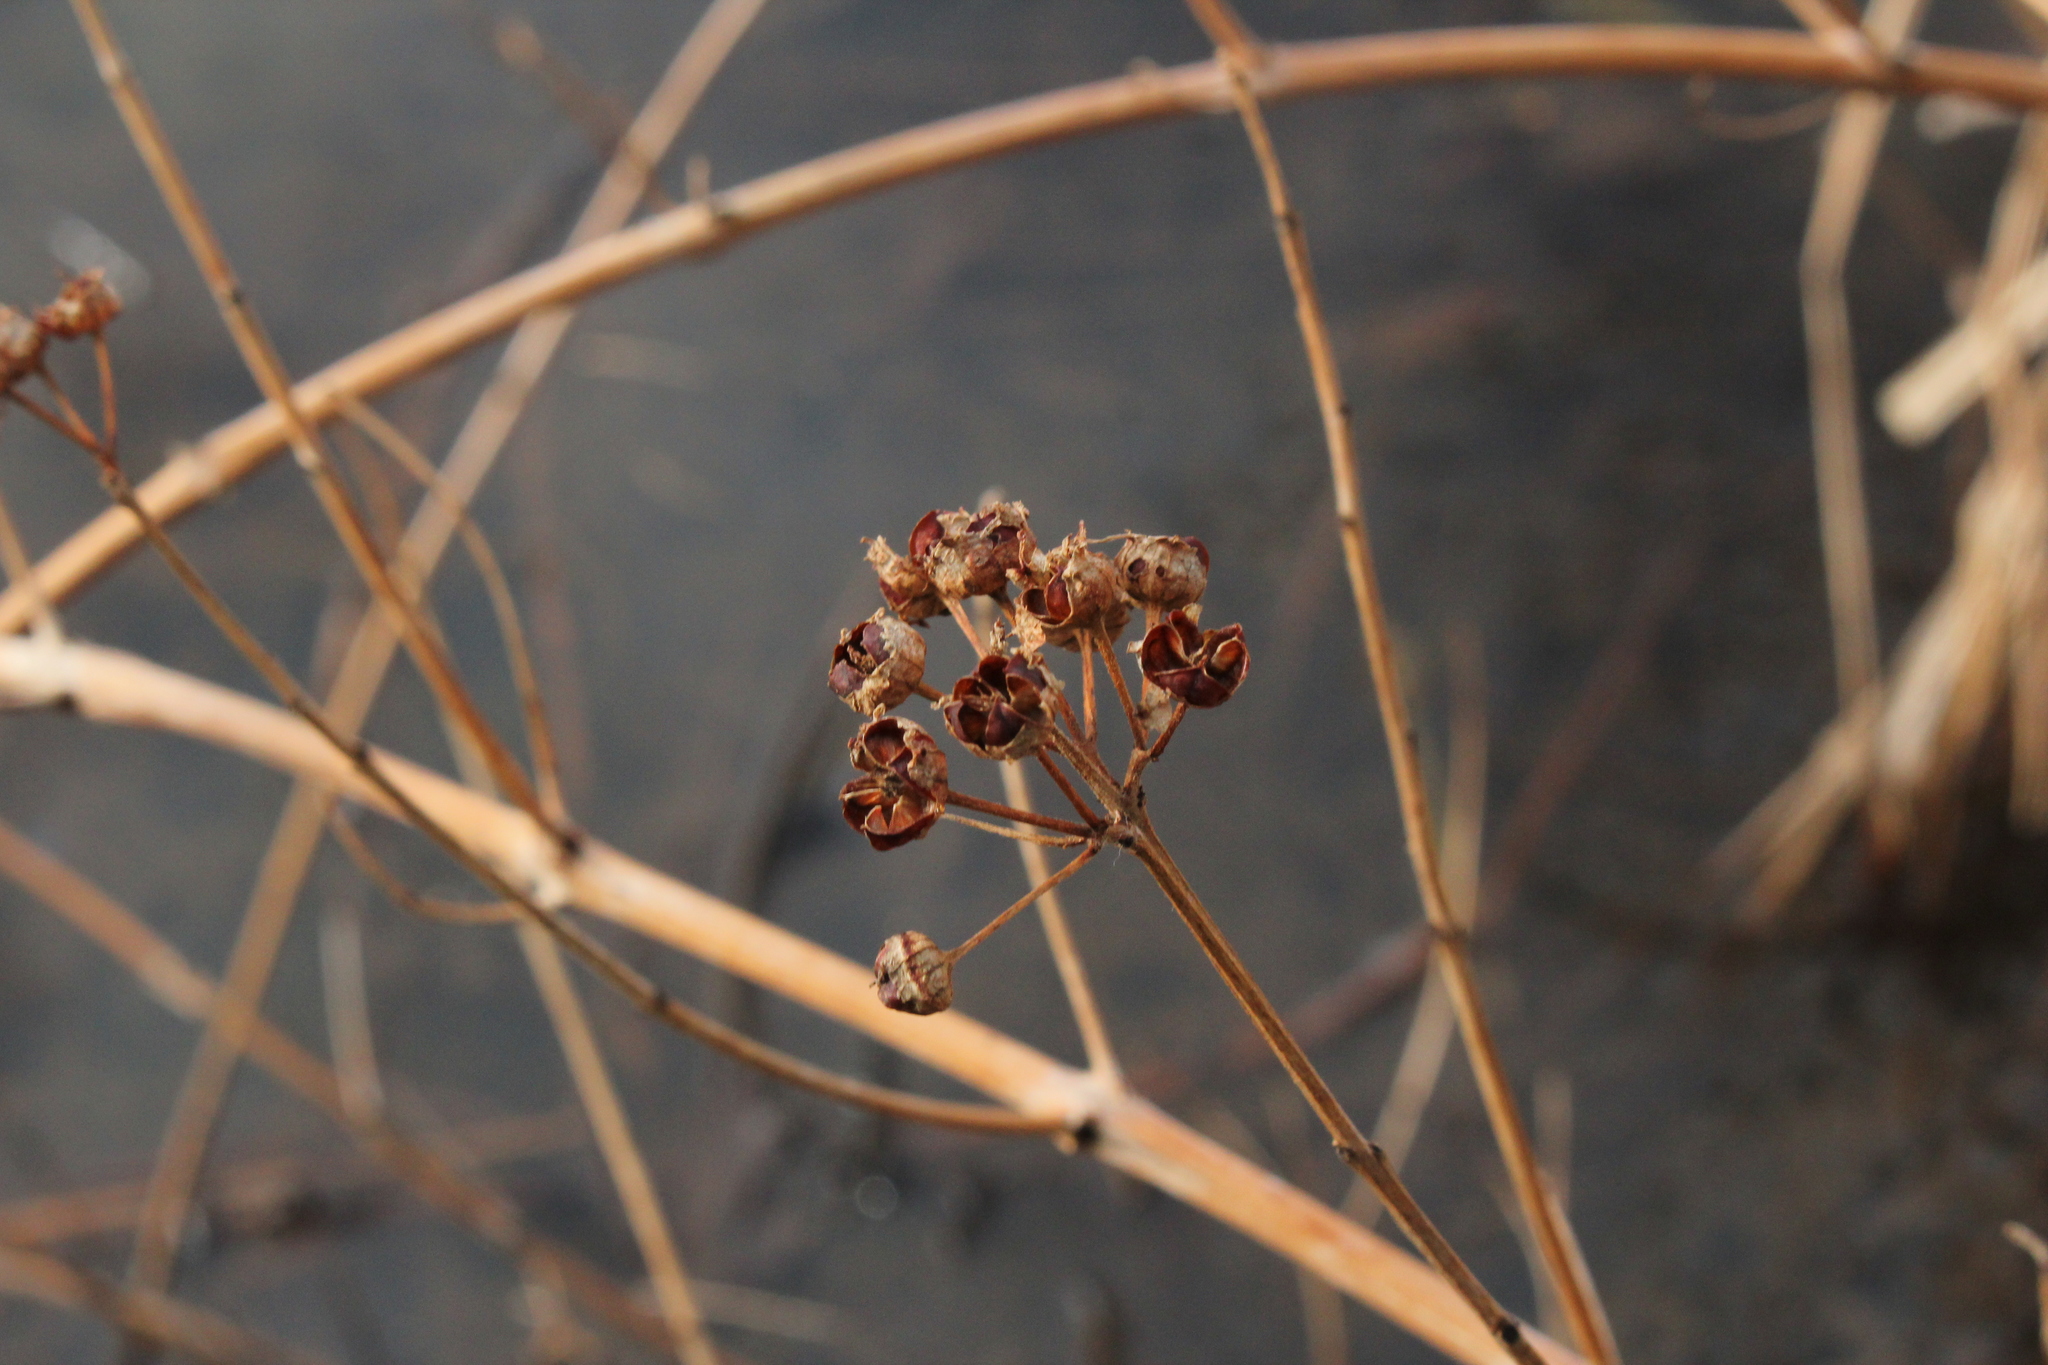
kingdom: Plantae
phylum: Tracheophyta
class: Magnoliopsida
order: Myrtales
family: Lythraceae
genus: Decodon
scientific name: Decodon verticillatus
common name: Hairy swamp loosestrife
